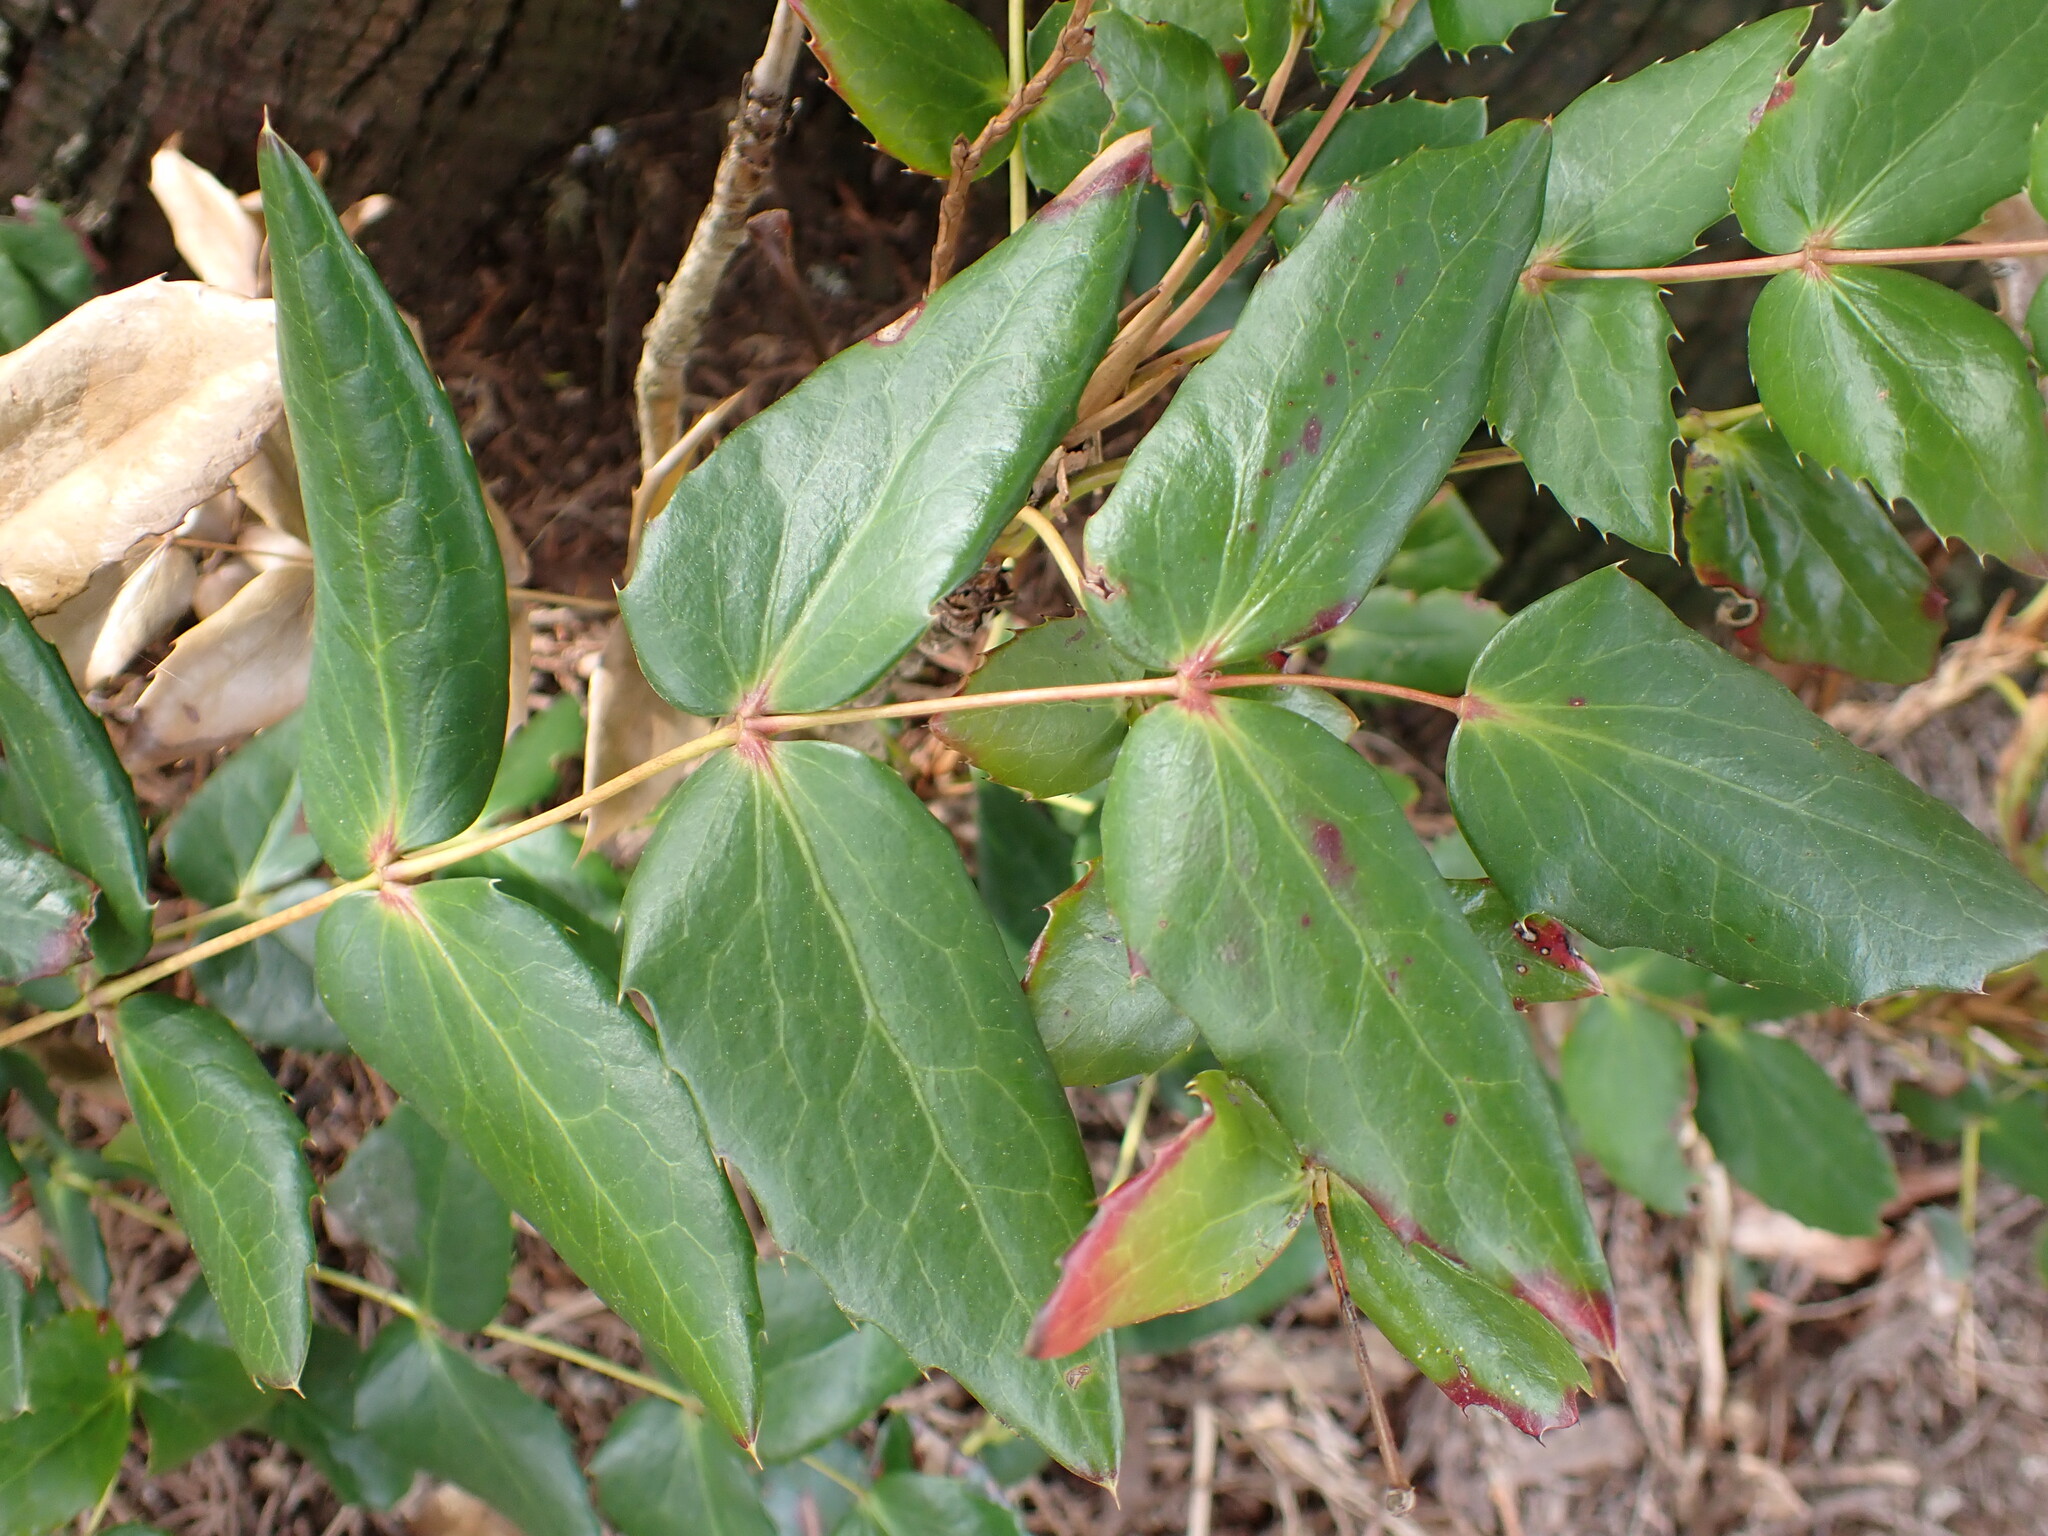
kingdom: Plantae
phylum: Tracheophyta
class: Magnoliopsida
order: Ranunculales
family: Berberidaceae
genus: Mahonia
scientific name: Mahonia nervosa
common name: Cascade oregon-grape
